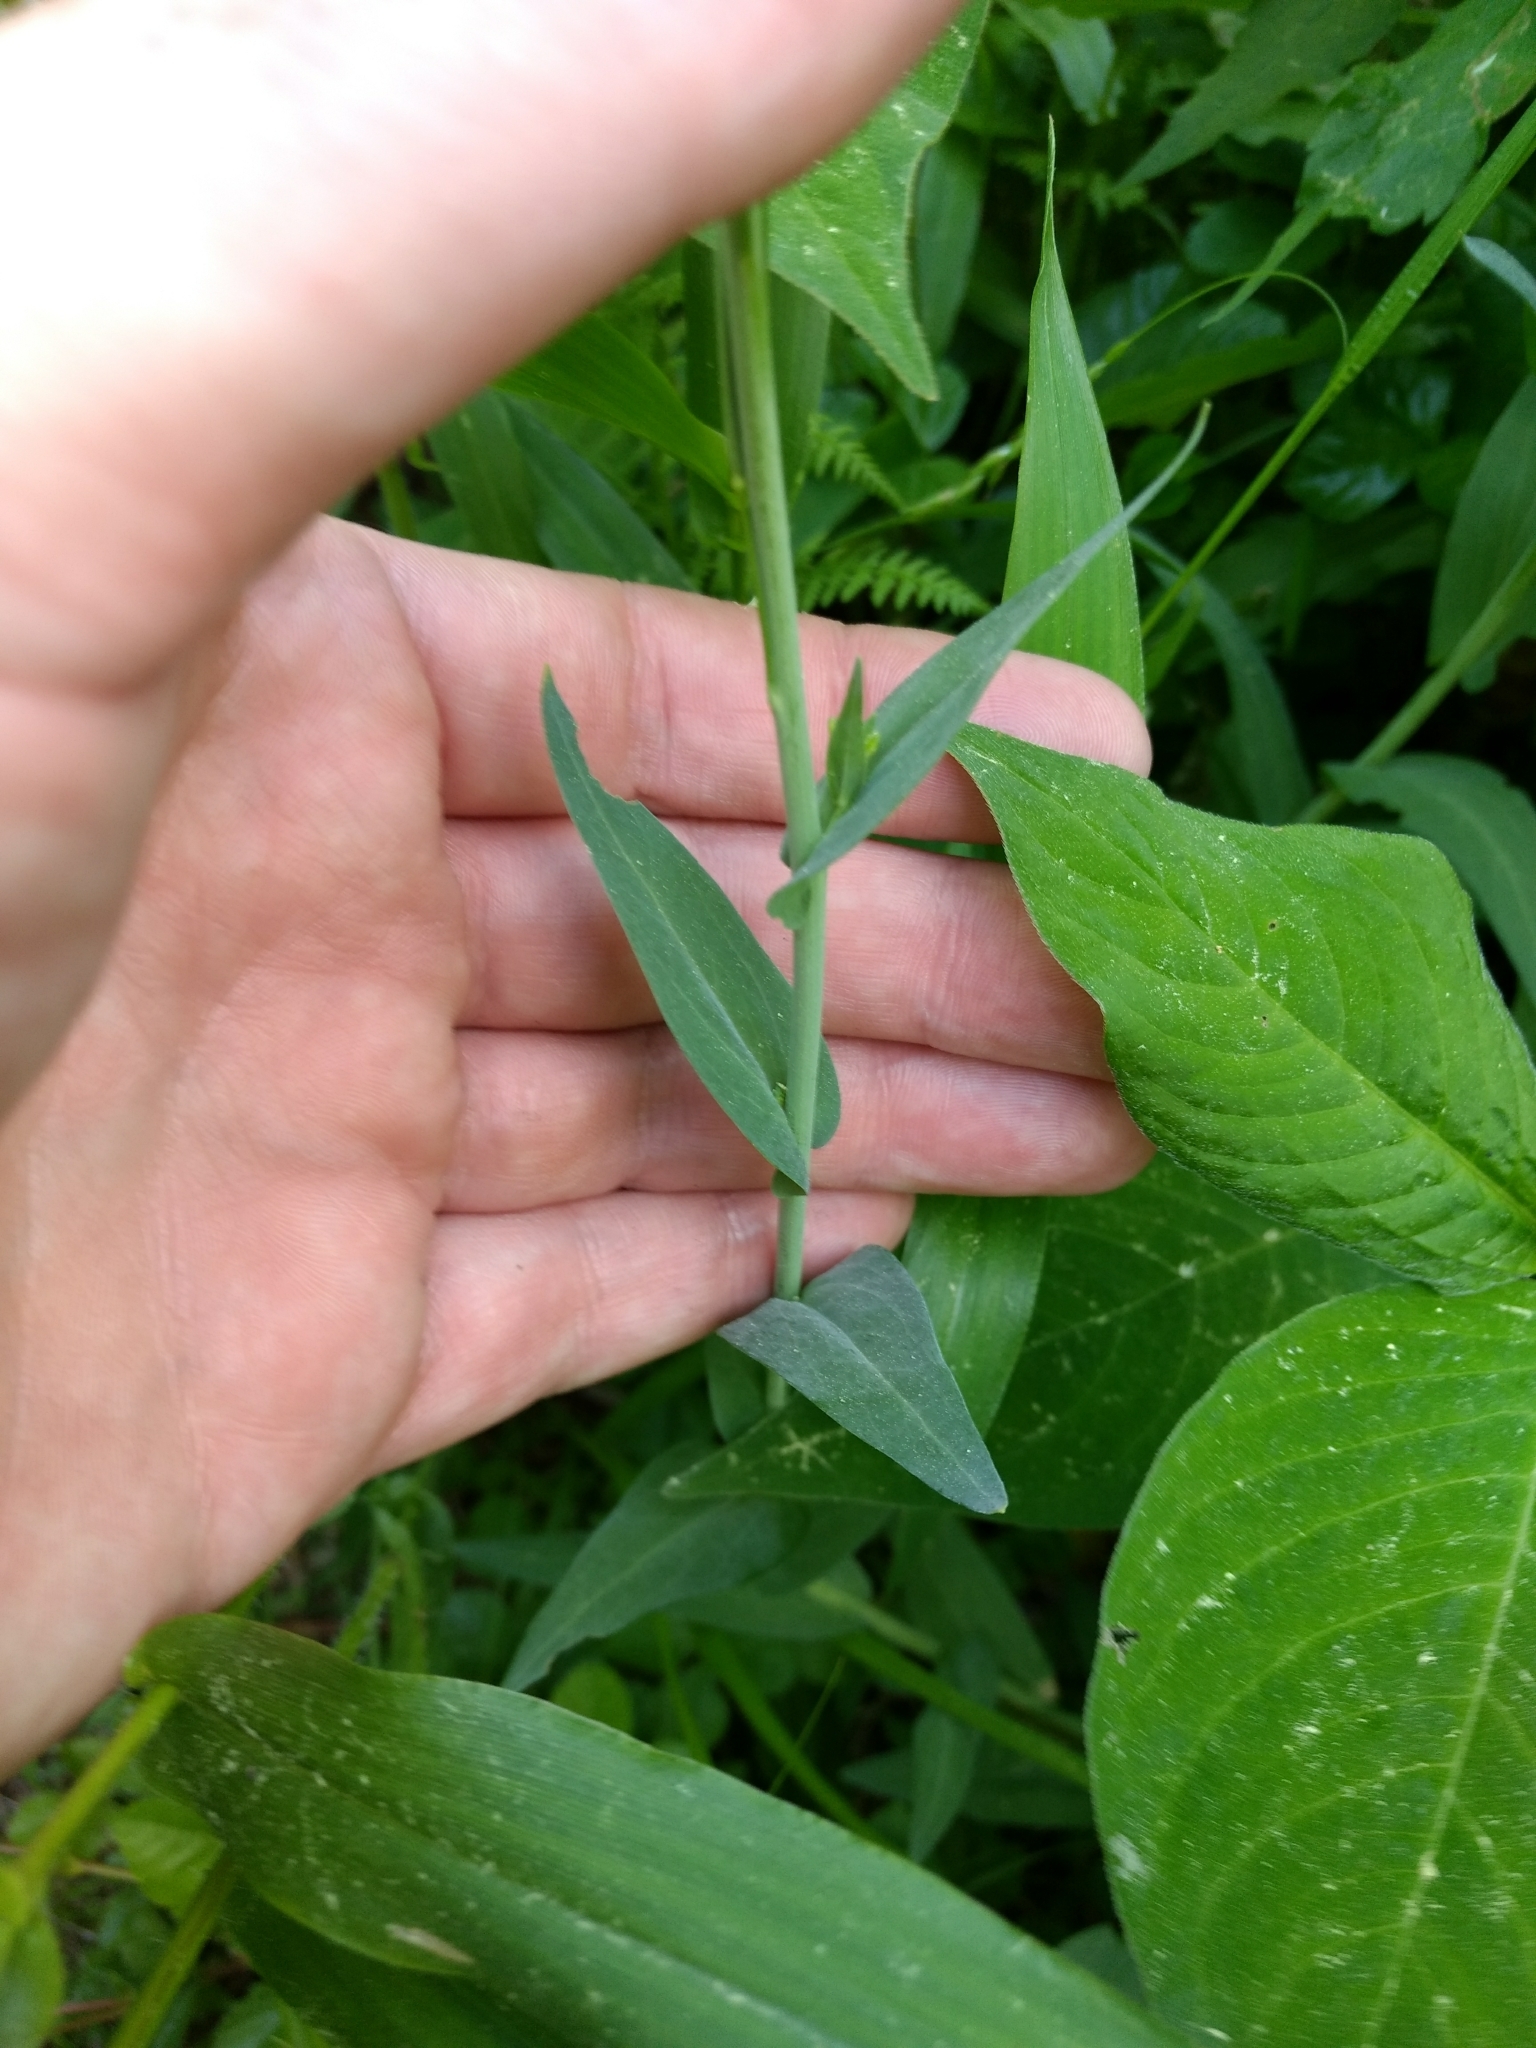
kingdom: Plantae
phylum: Tracheophyta
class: Magnoliopsida
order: Brassicales
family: Brassicaceae
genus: Turritis
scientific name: Turritis glabra
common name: Tower rockcress
